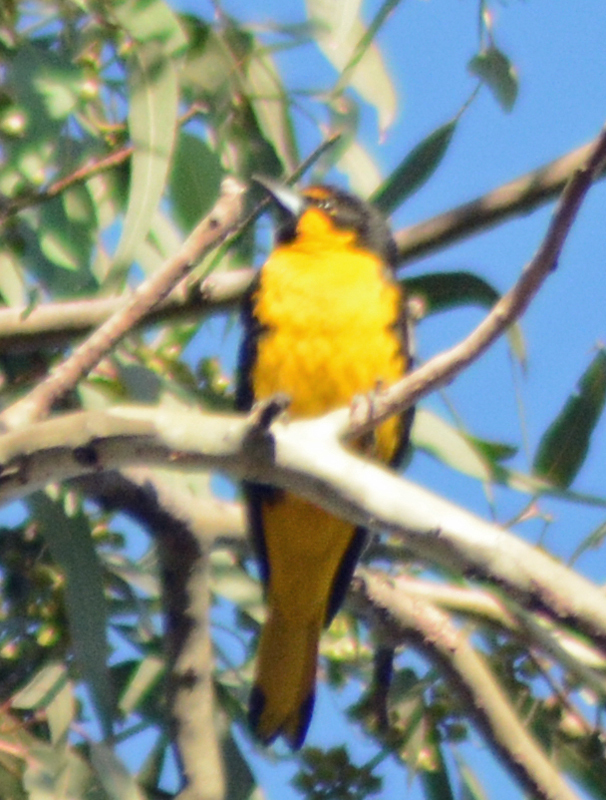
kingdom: Animalia
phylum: Chordata
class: Aves
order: Passeriformes
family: Icteridae
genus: Icterus
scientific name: Icterus abeillei
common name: Black-backed oriole
